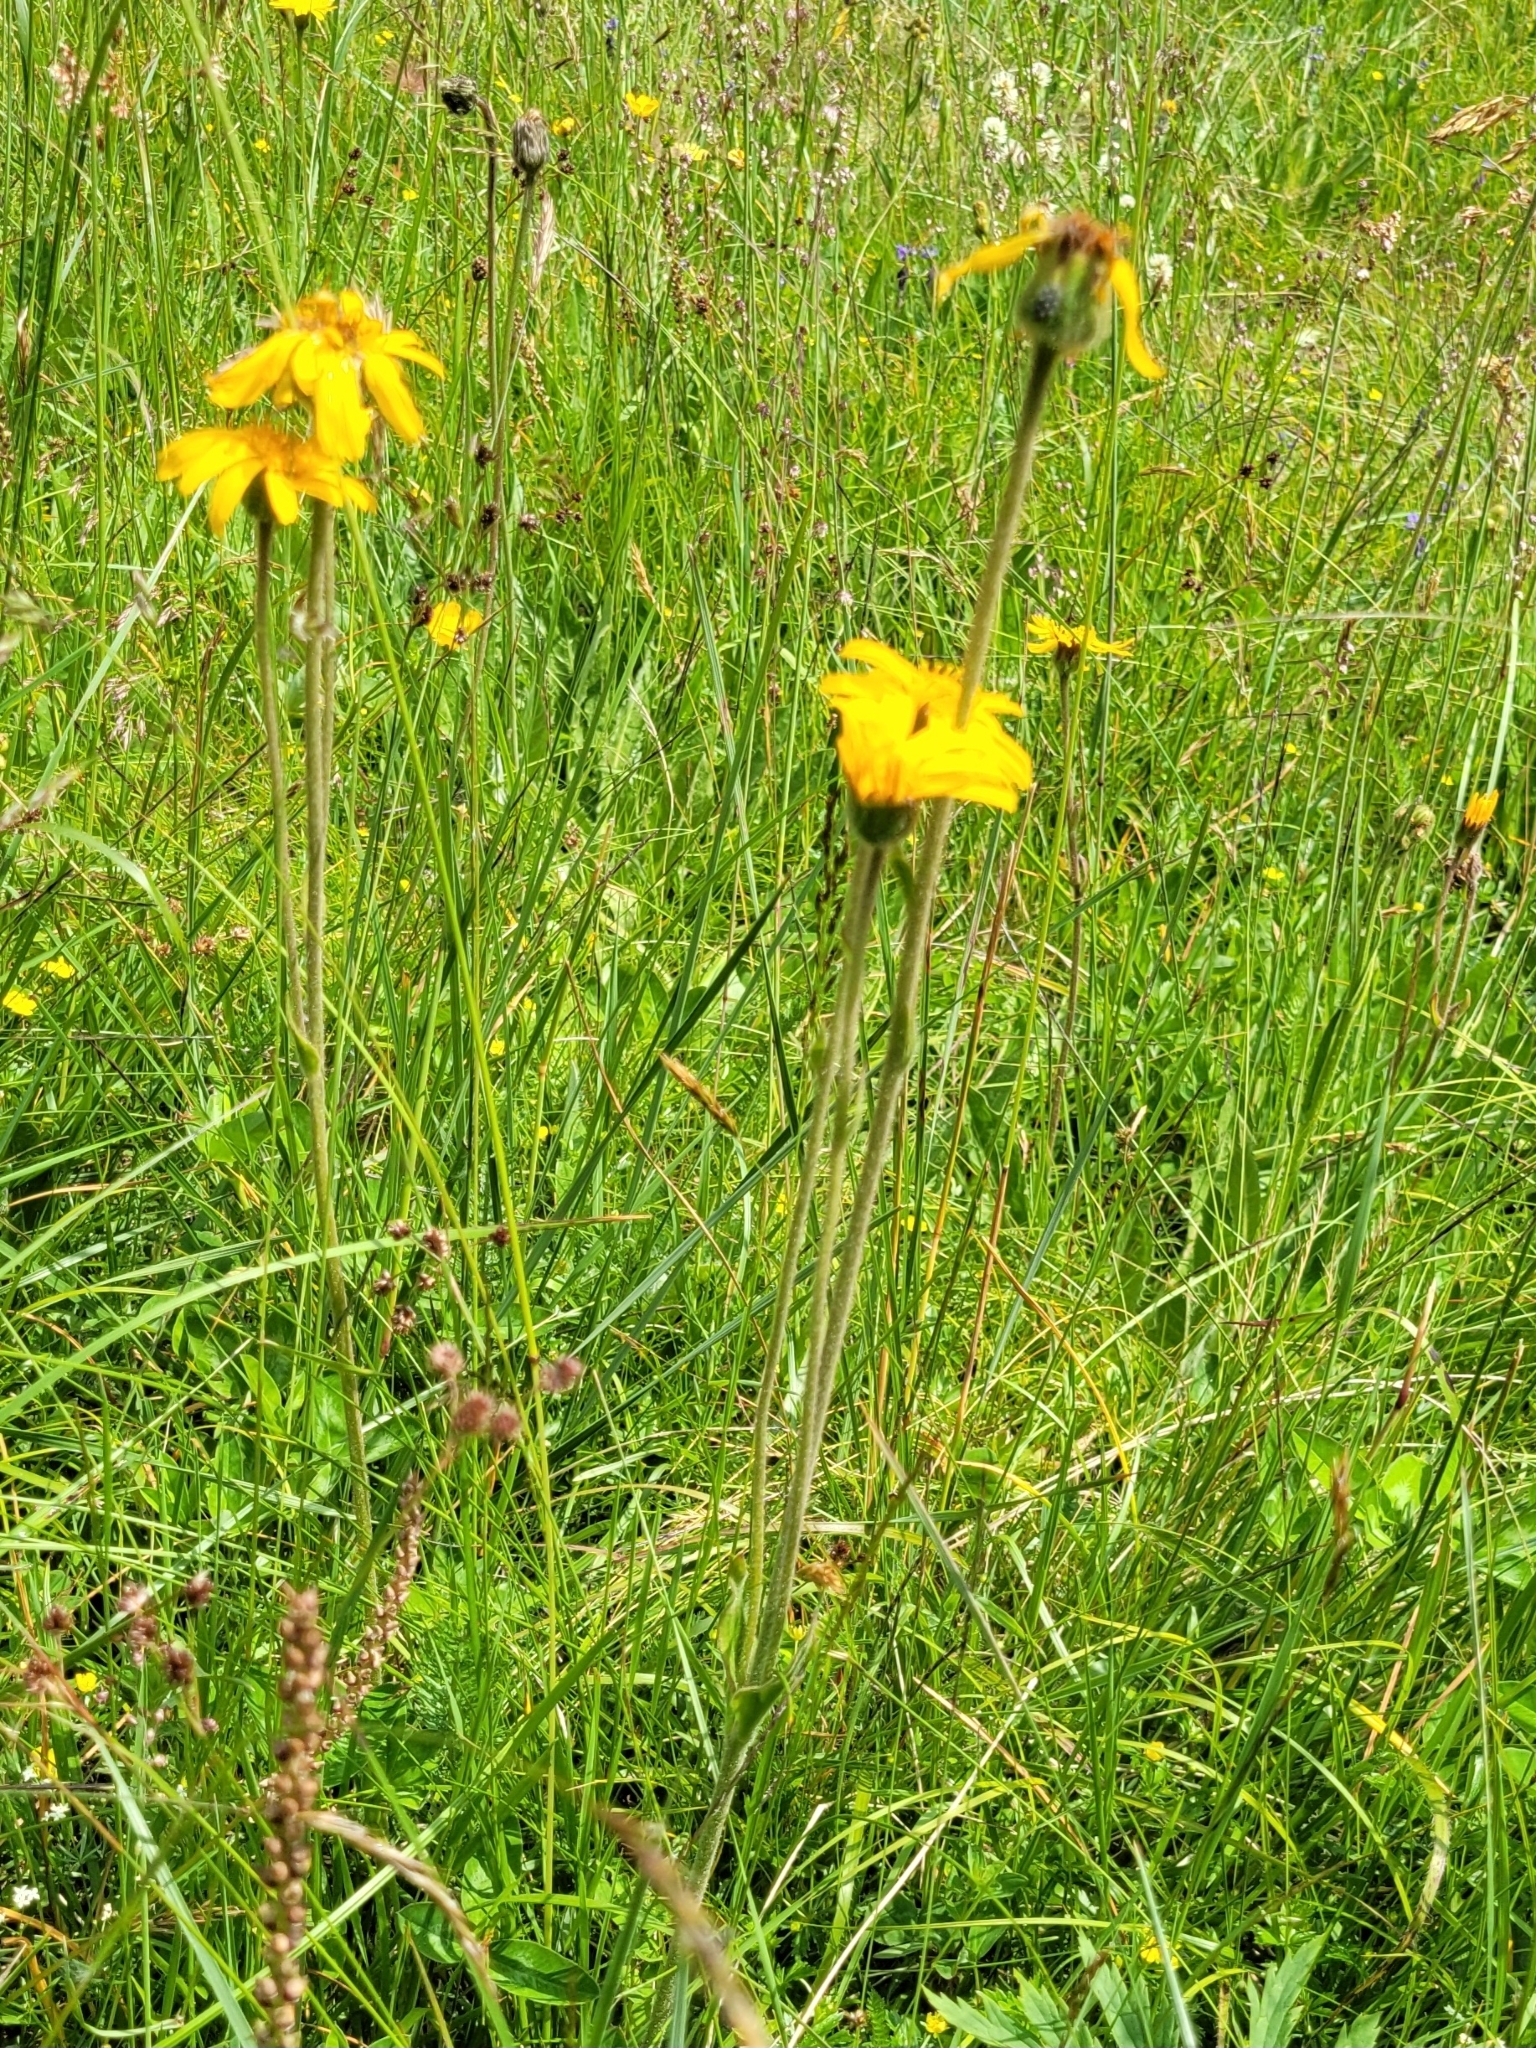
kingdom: Plantae
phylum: Tracheophyta
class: Magnoliopsida
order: Asterales
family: Asteraceae
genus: Arnica
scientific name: Arnica montana
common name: Leopard's bane
